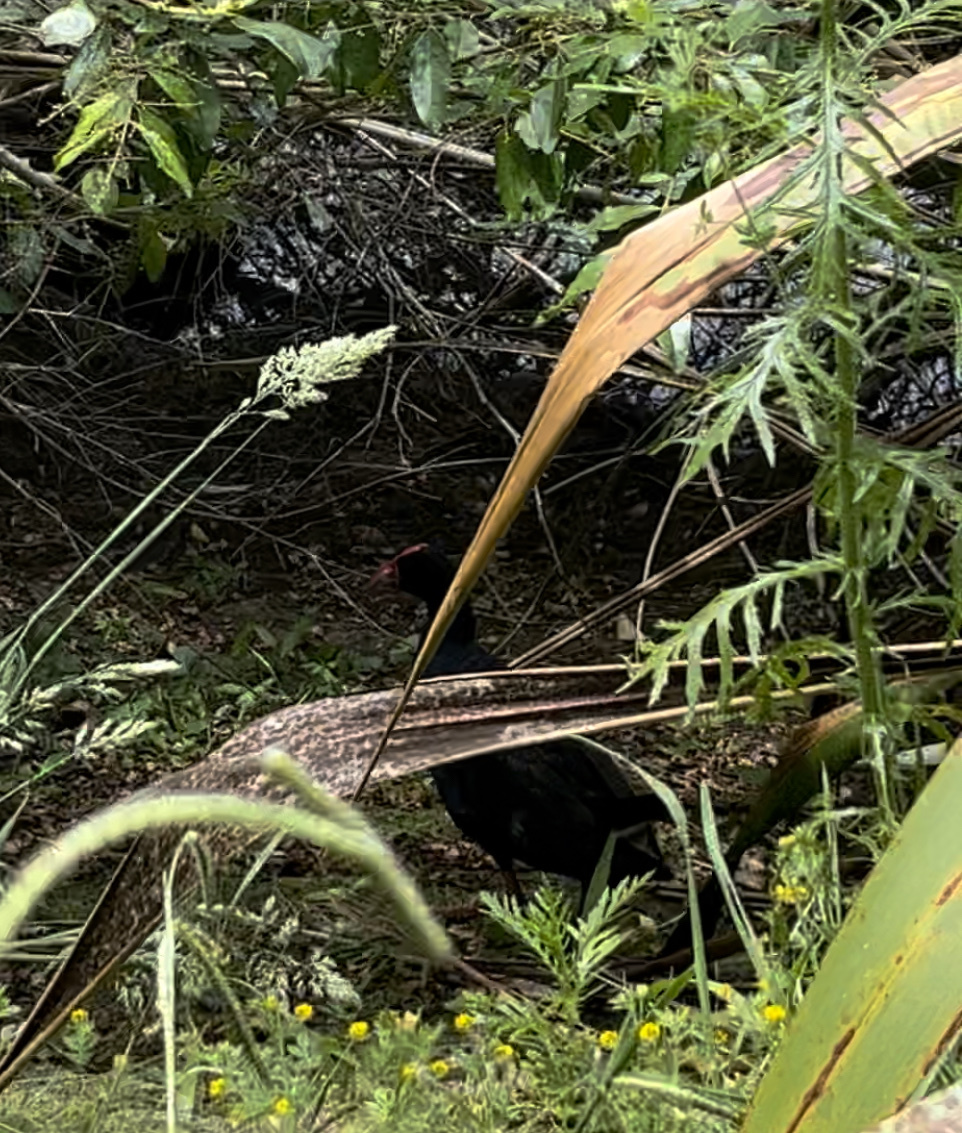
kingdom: Animalia
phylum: Chordata
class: Aves
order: Gruiformes
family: Rallidae
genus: Porphyrio
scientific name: Porphyrio melanotus
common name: Australasian swamphen
